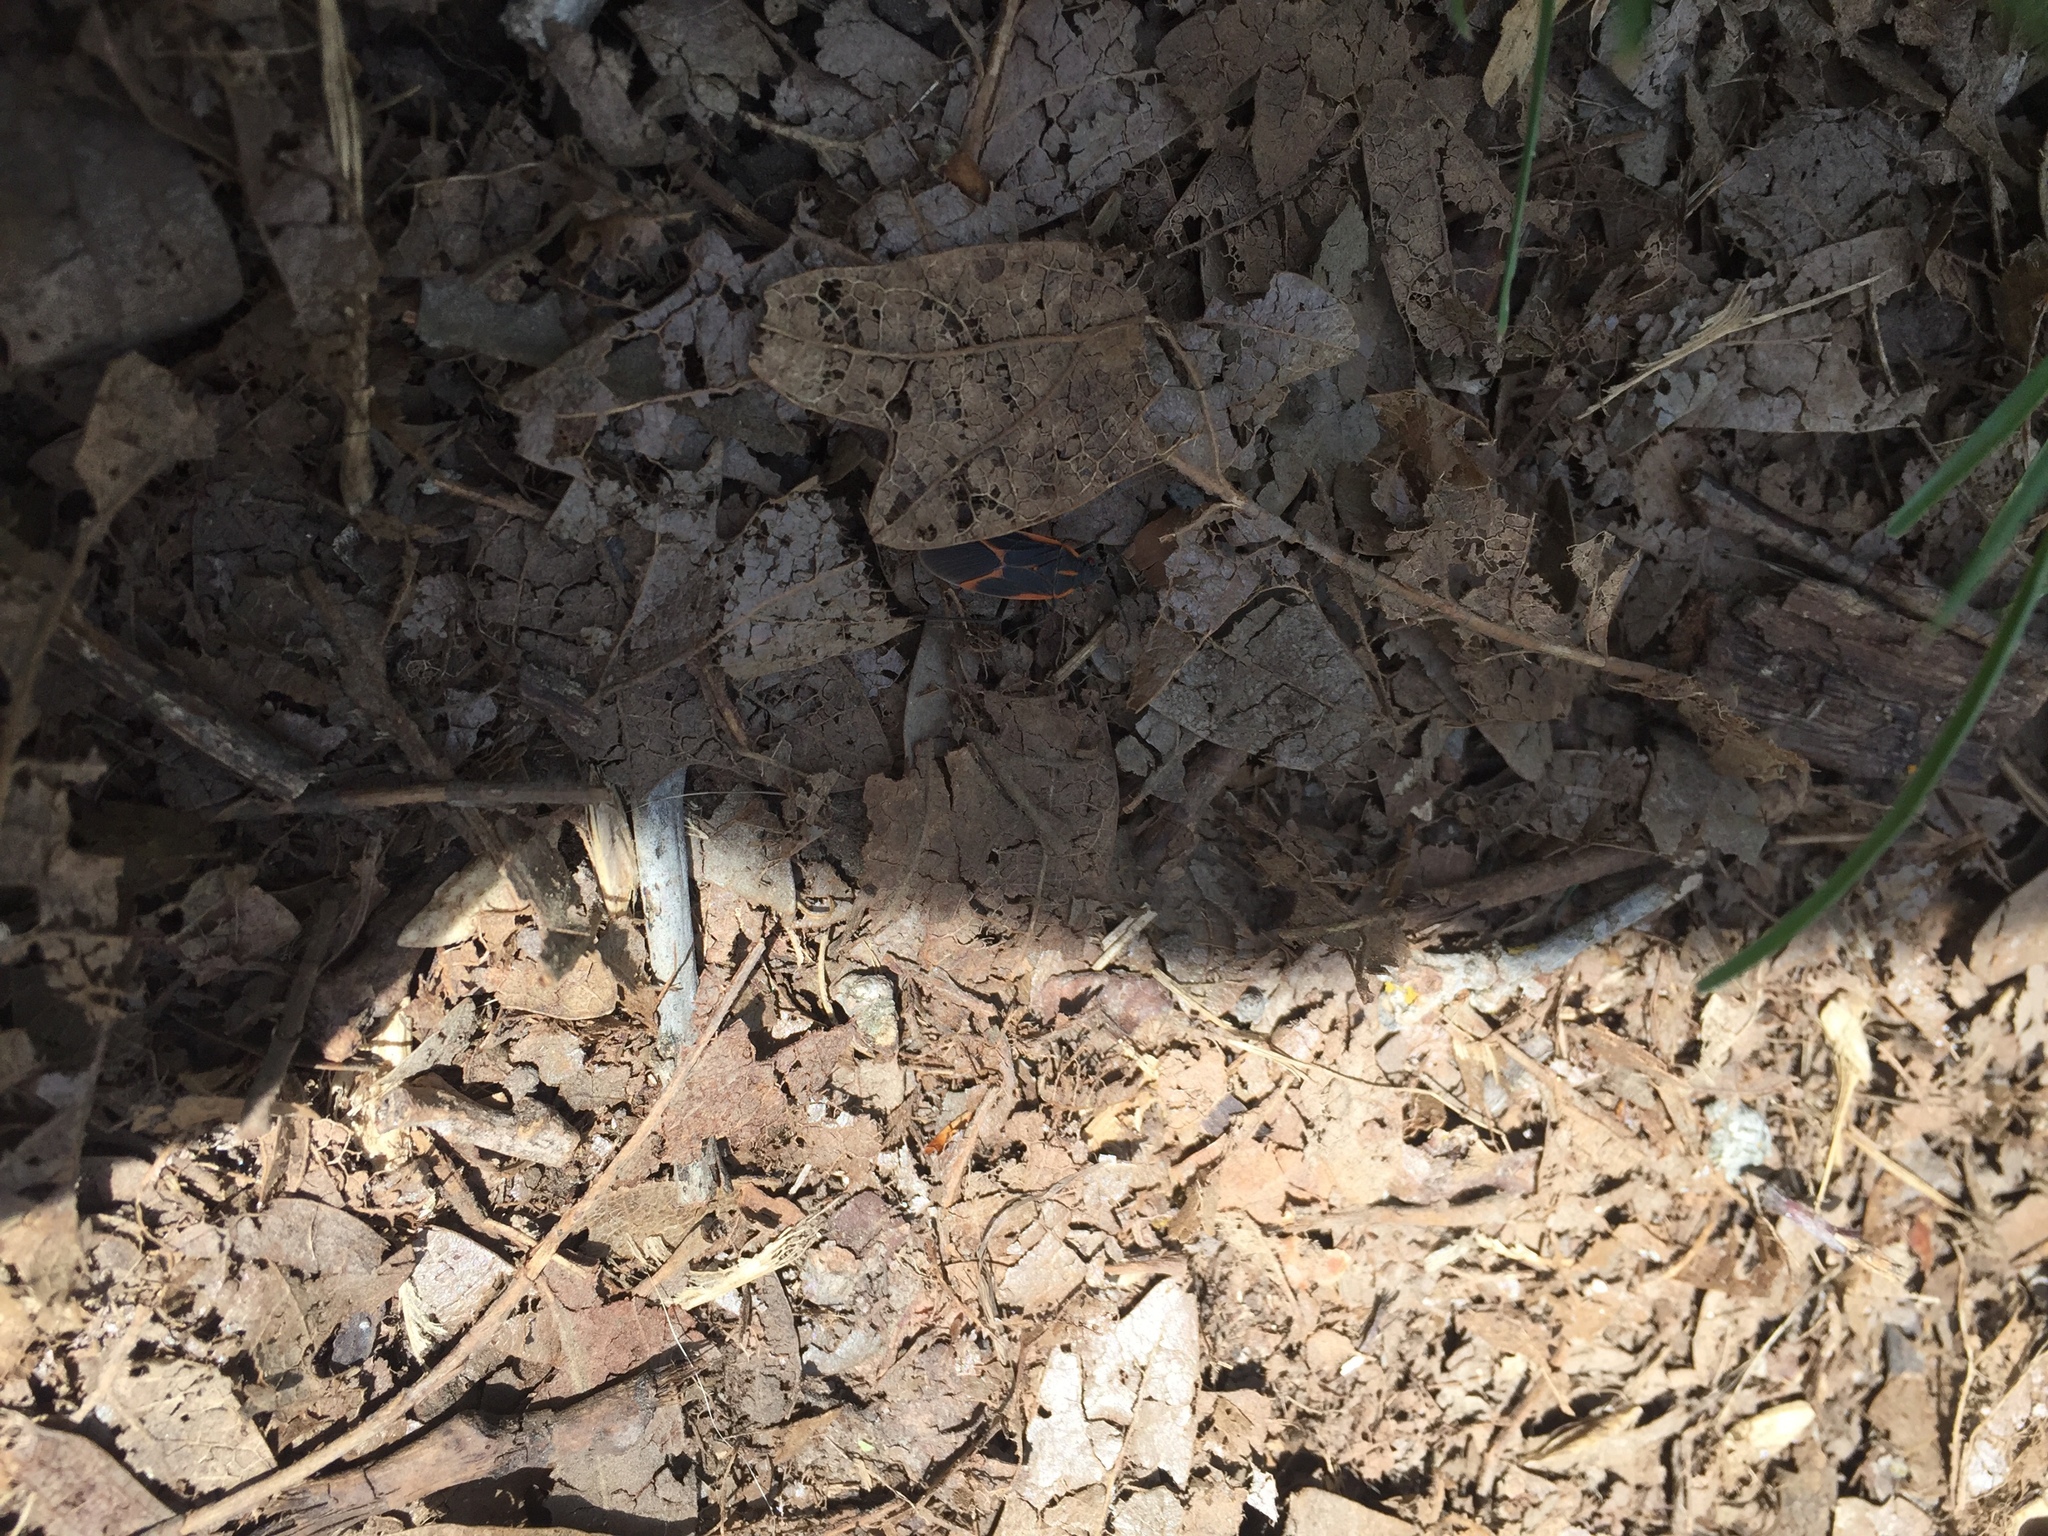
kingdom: Animalia
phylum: Arthropoda
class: Insecta
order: Hemiptera
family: Rhopalidae
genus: Boisea
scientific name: Boisea trivittata
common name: Boxelder bug
